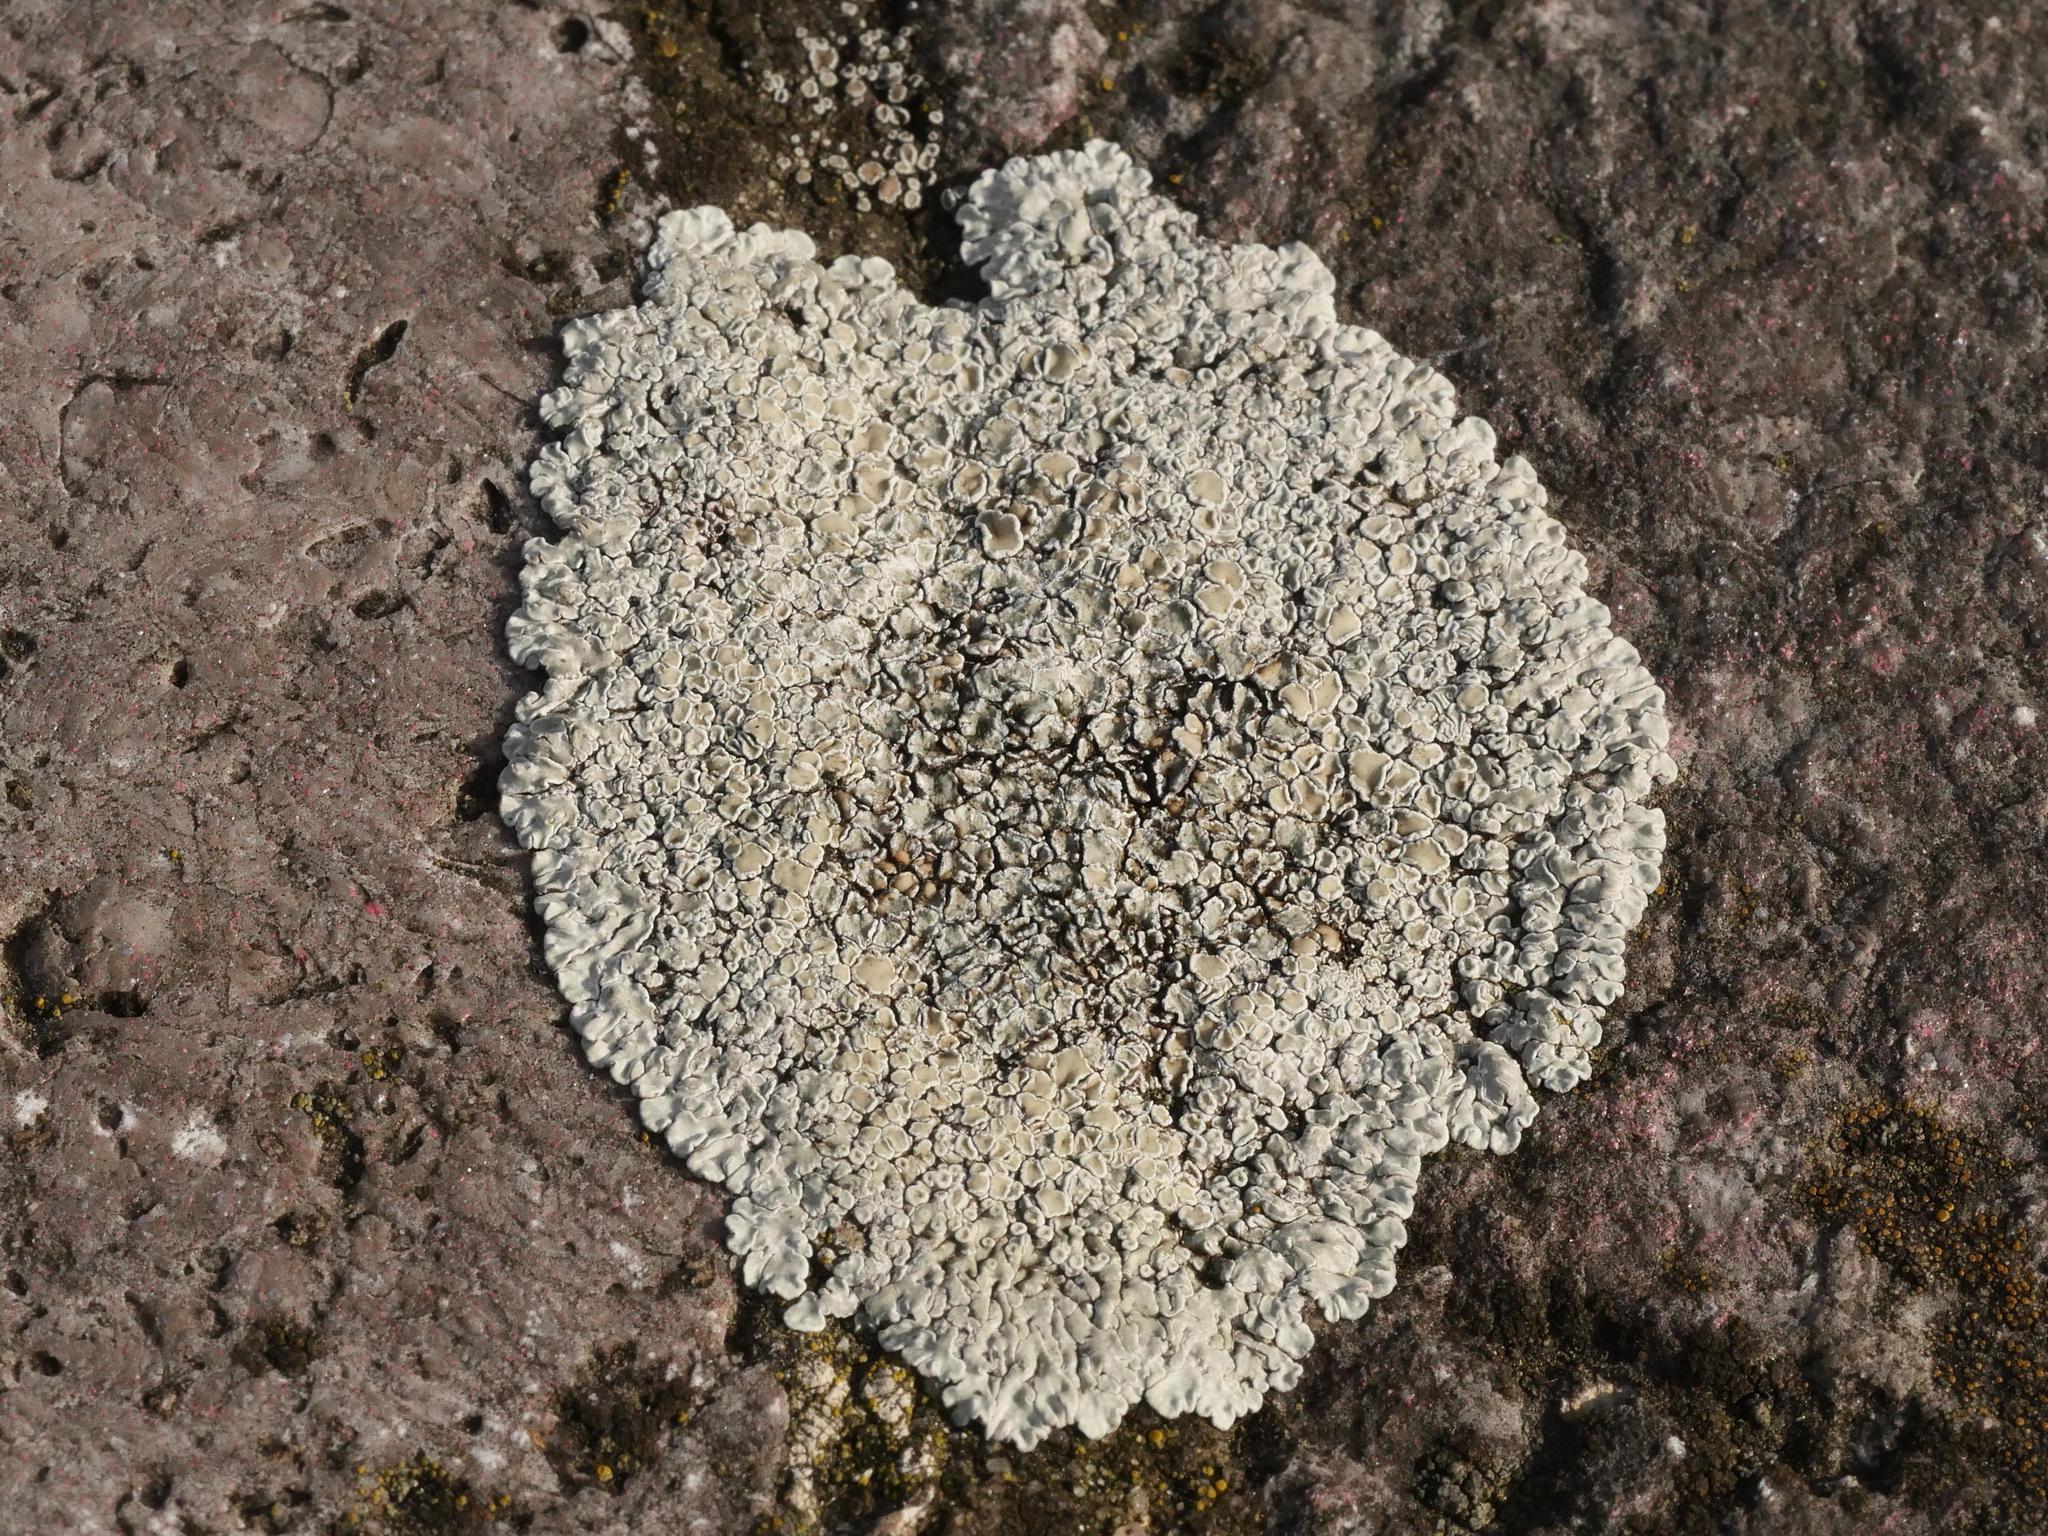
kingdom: Fungi
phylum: Ascomycota
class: Lecanoromycetes
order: Lecanorales
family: Lecanoraceae
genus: Protoparmeliopsis
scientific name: Protoparmeliopsis muralis
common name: Stonewall rim lichen
